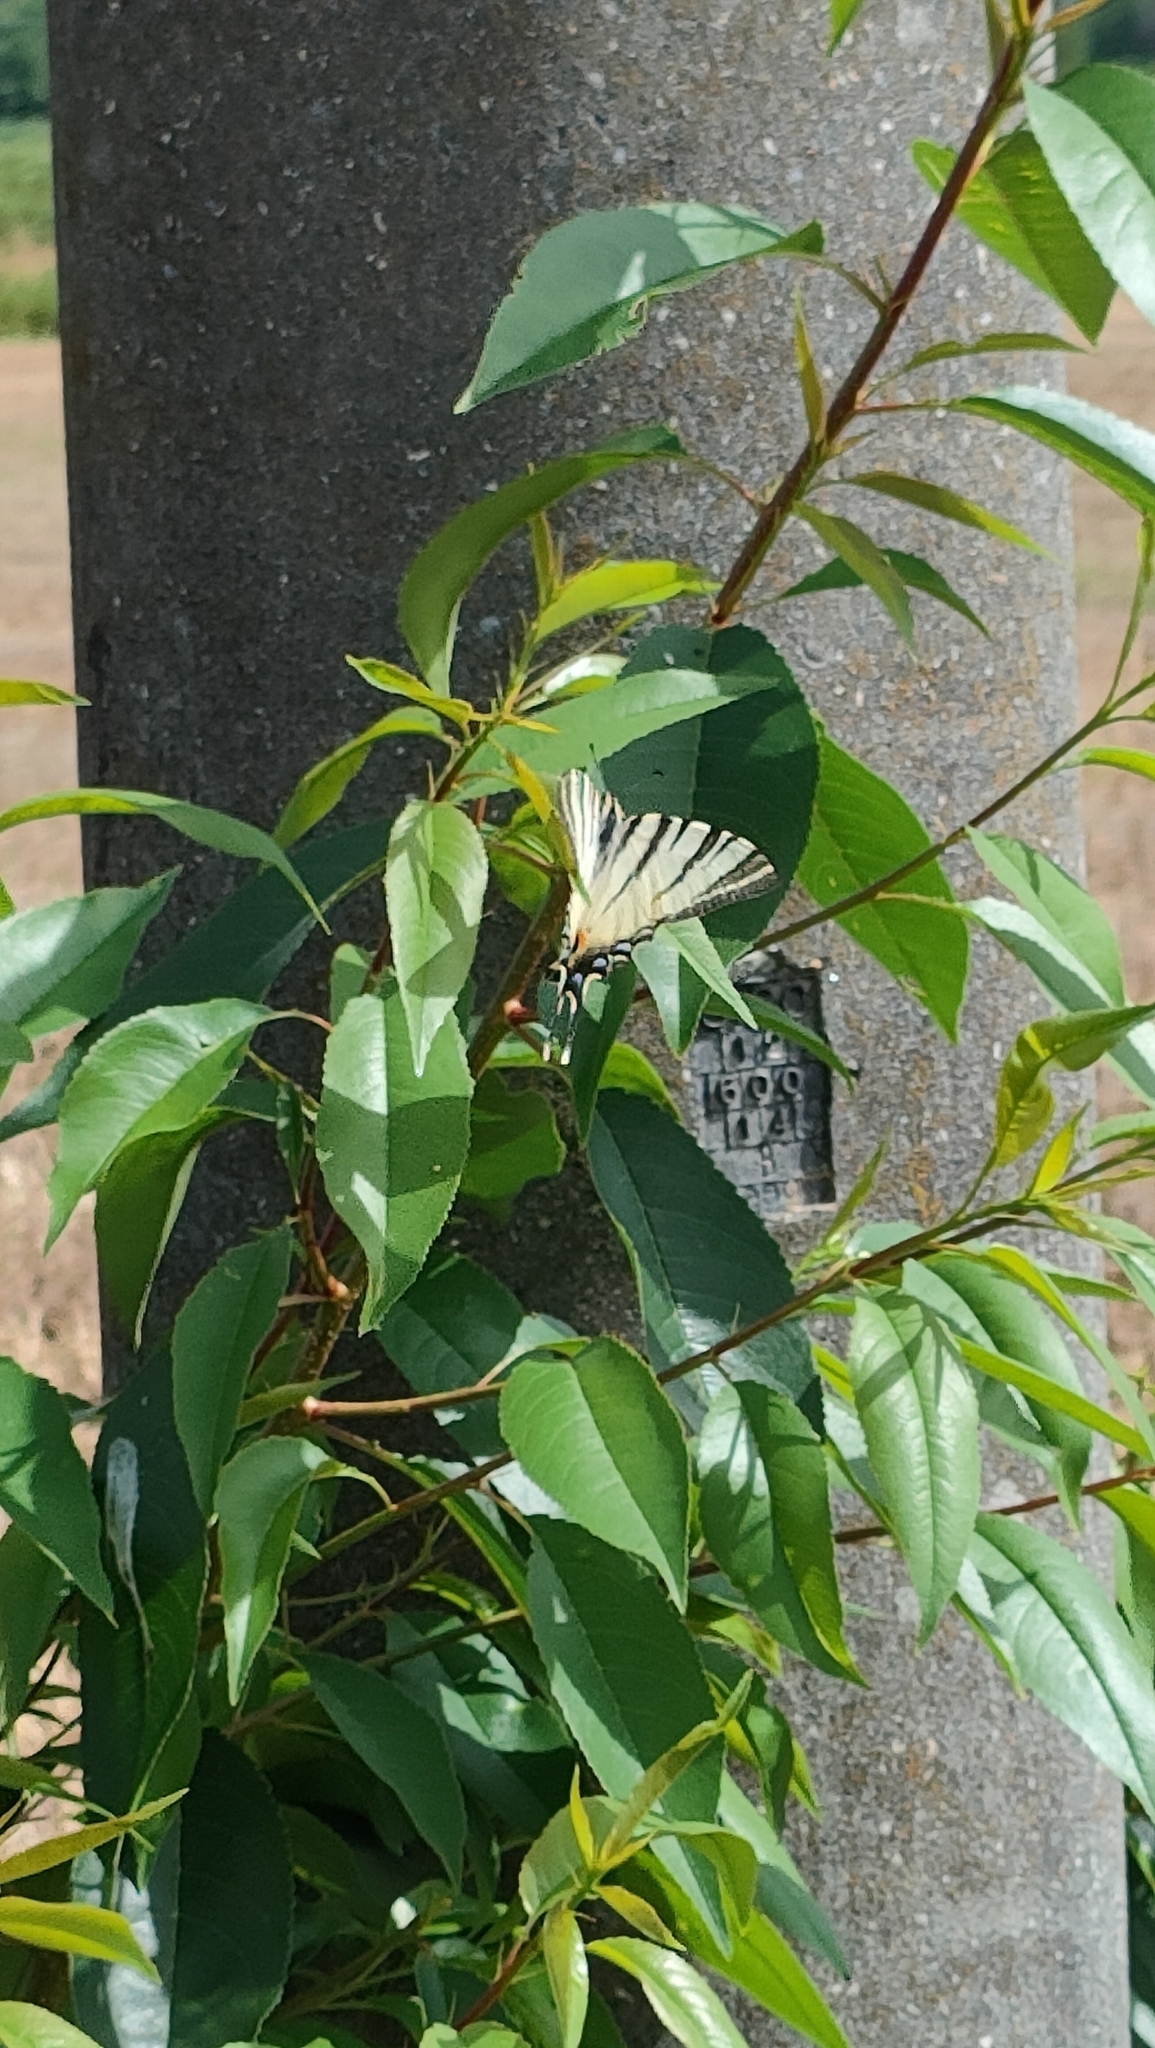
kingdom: Animalia
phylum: Arthropoda
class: Insecta
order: Lepidoptera
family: Papilionidae
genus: Iphiclides
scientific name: Iphiclides podalirius
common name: Scarce swallowtail
